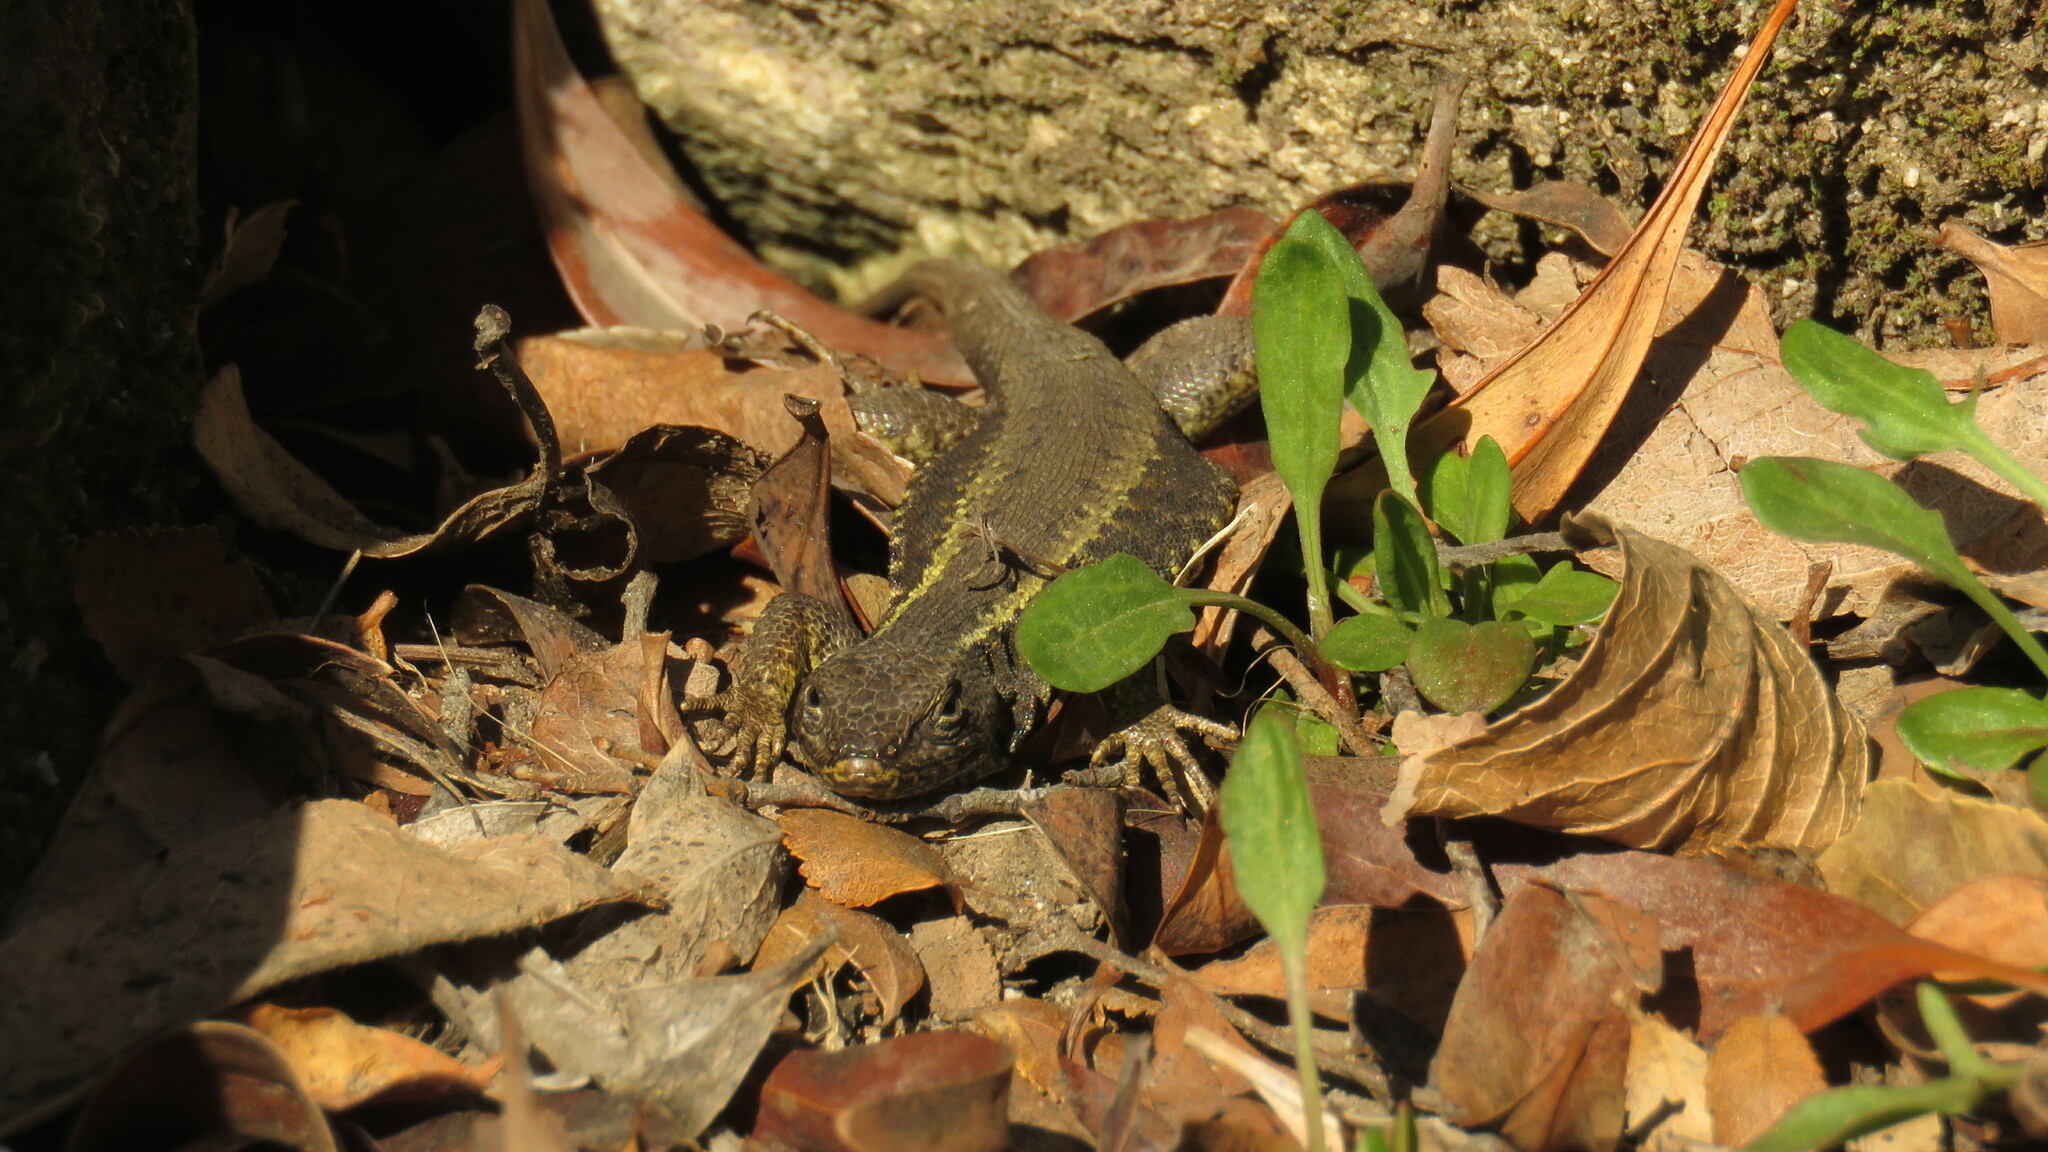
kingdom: Animalia
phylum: Chordata
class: Squamata
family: Liolaemidae
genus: Liolaemus
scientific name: Liolaemus pictus
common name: Painted tree iguana
